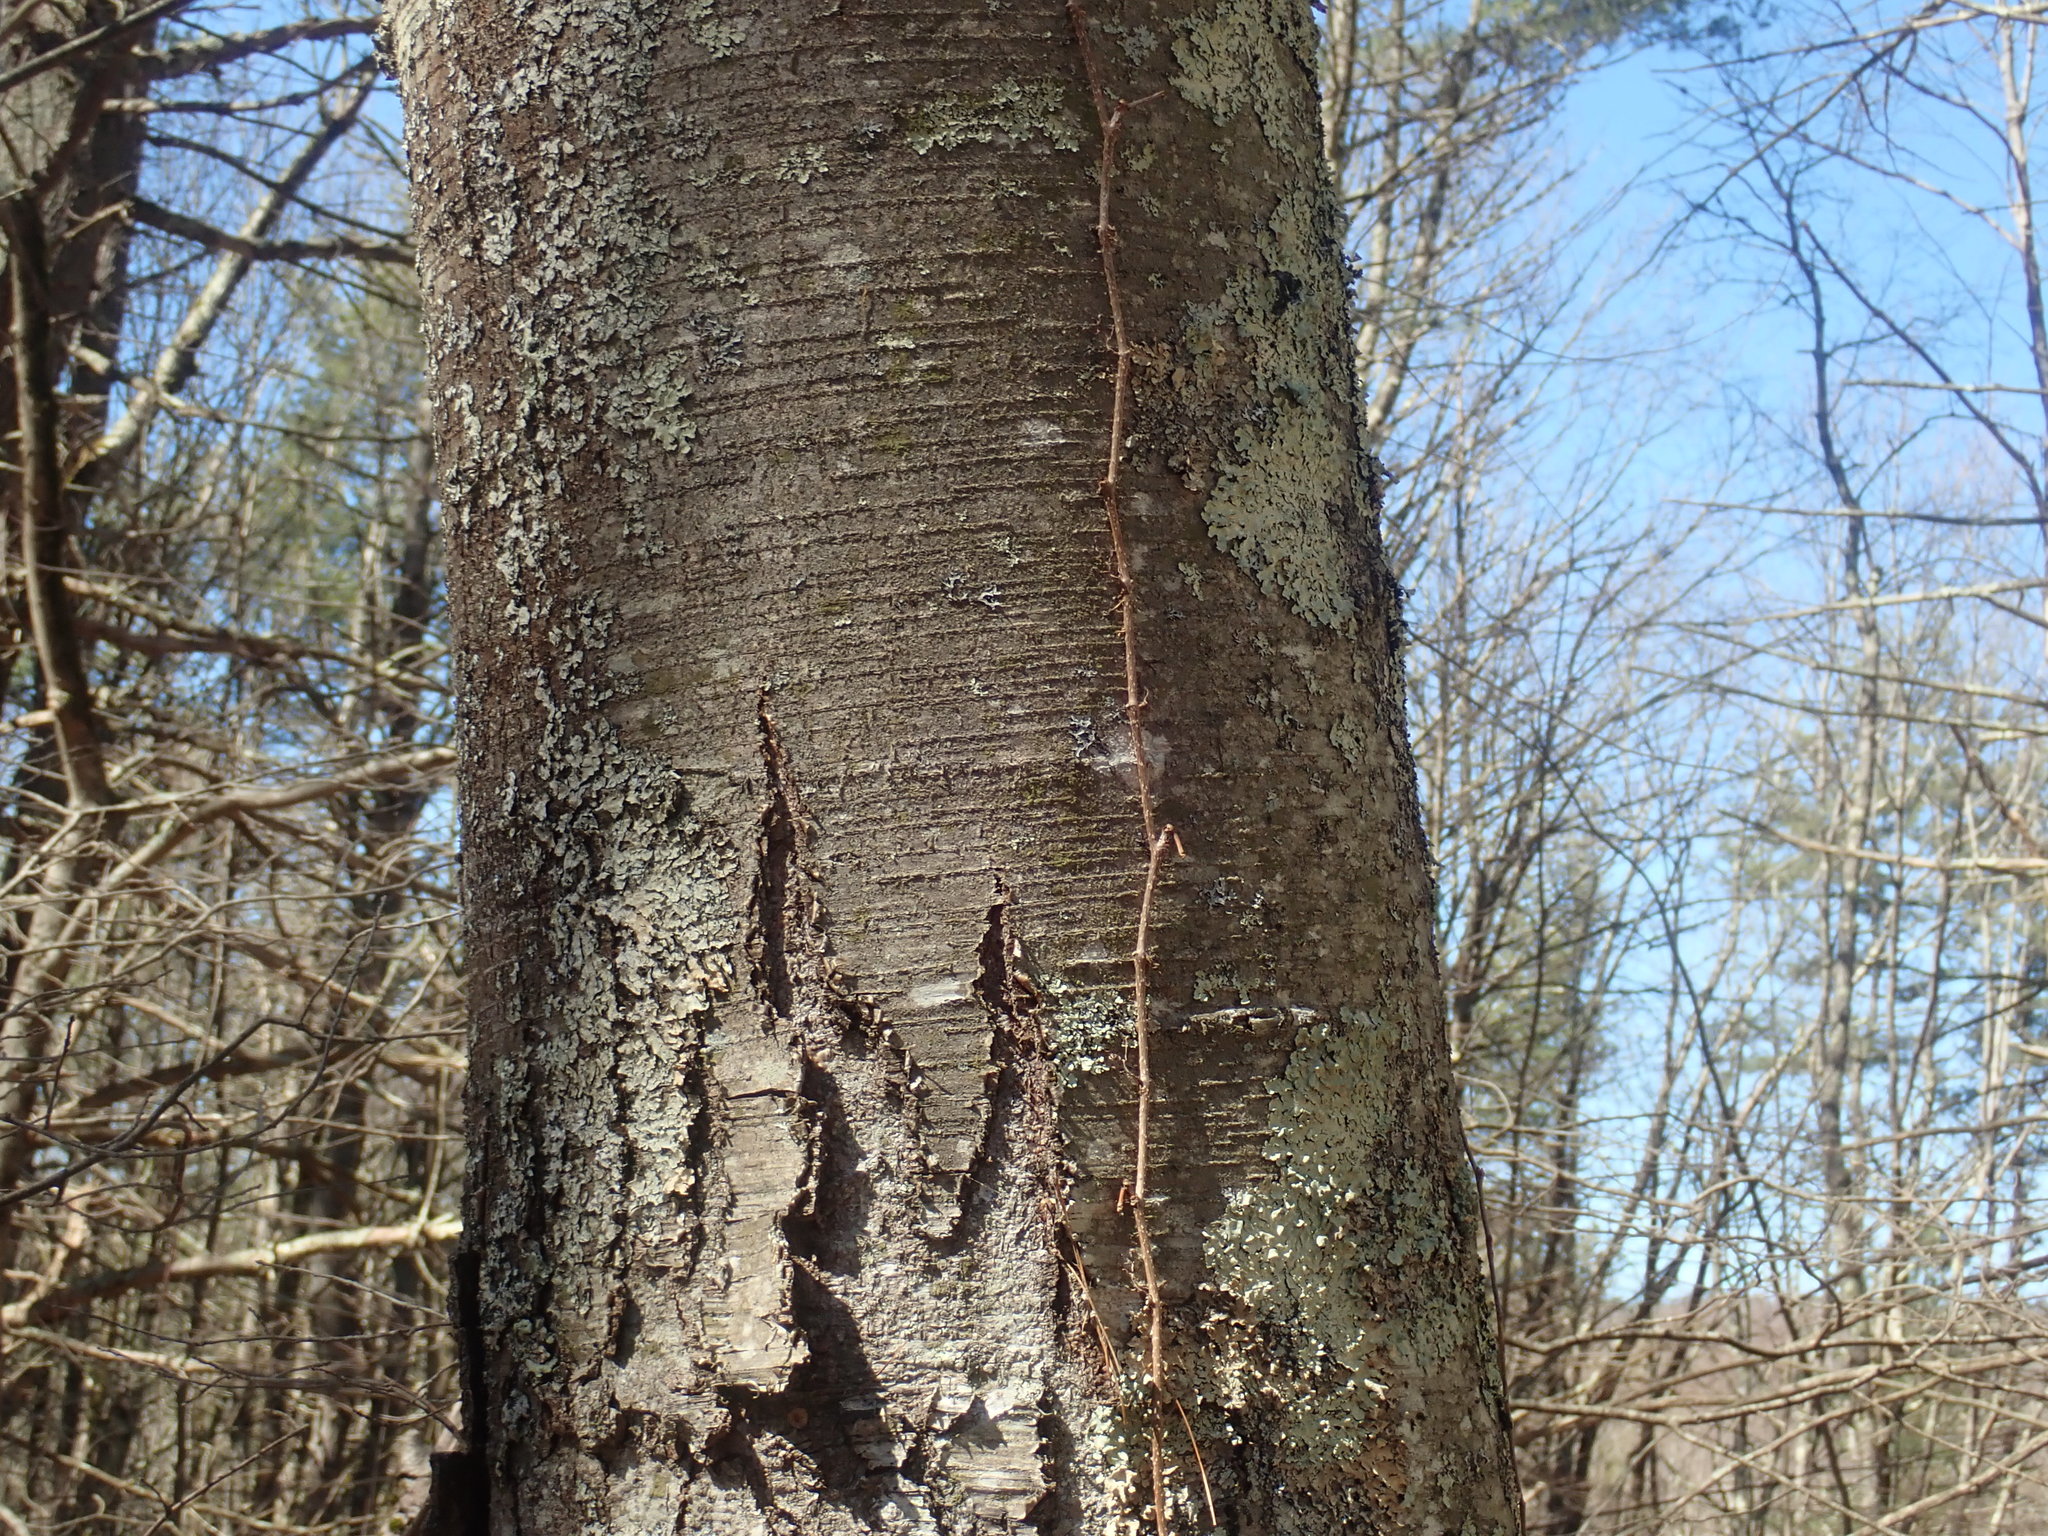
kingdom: Plantae
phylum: Tracheophyta
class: Magnoliopsida
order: Fagales
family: Betulaceae
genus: Betula
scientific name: Betula lenta
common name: Black birch
